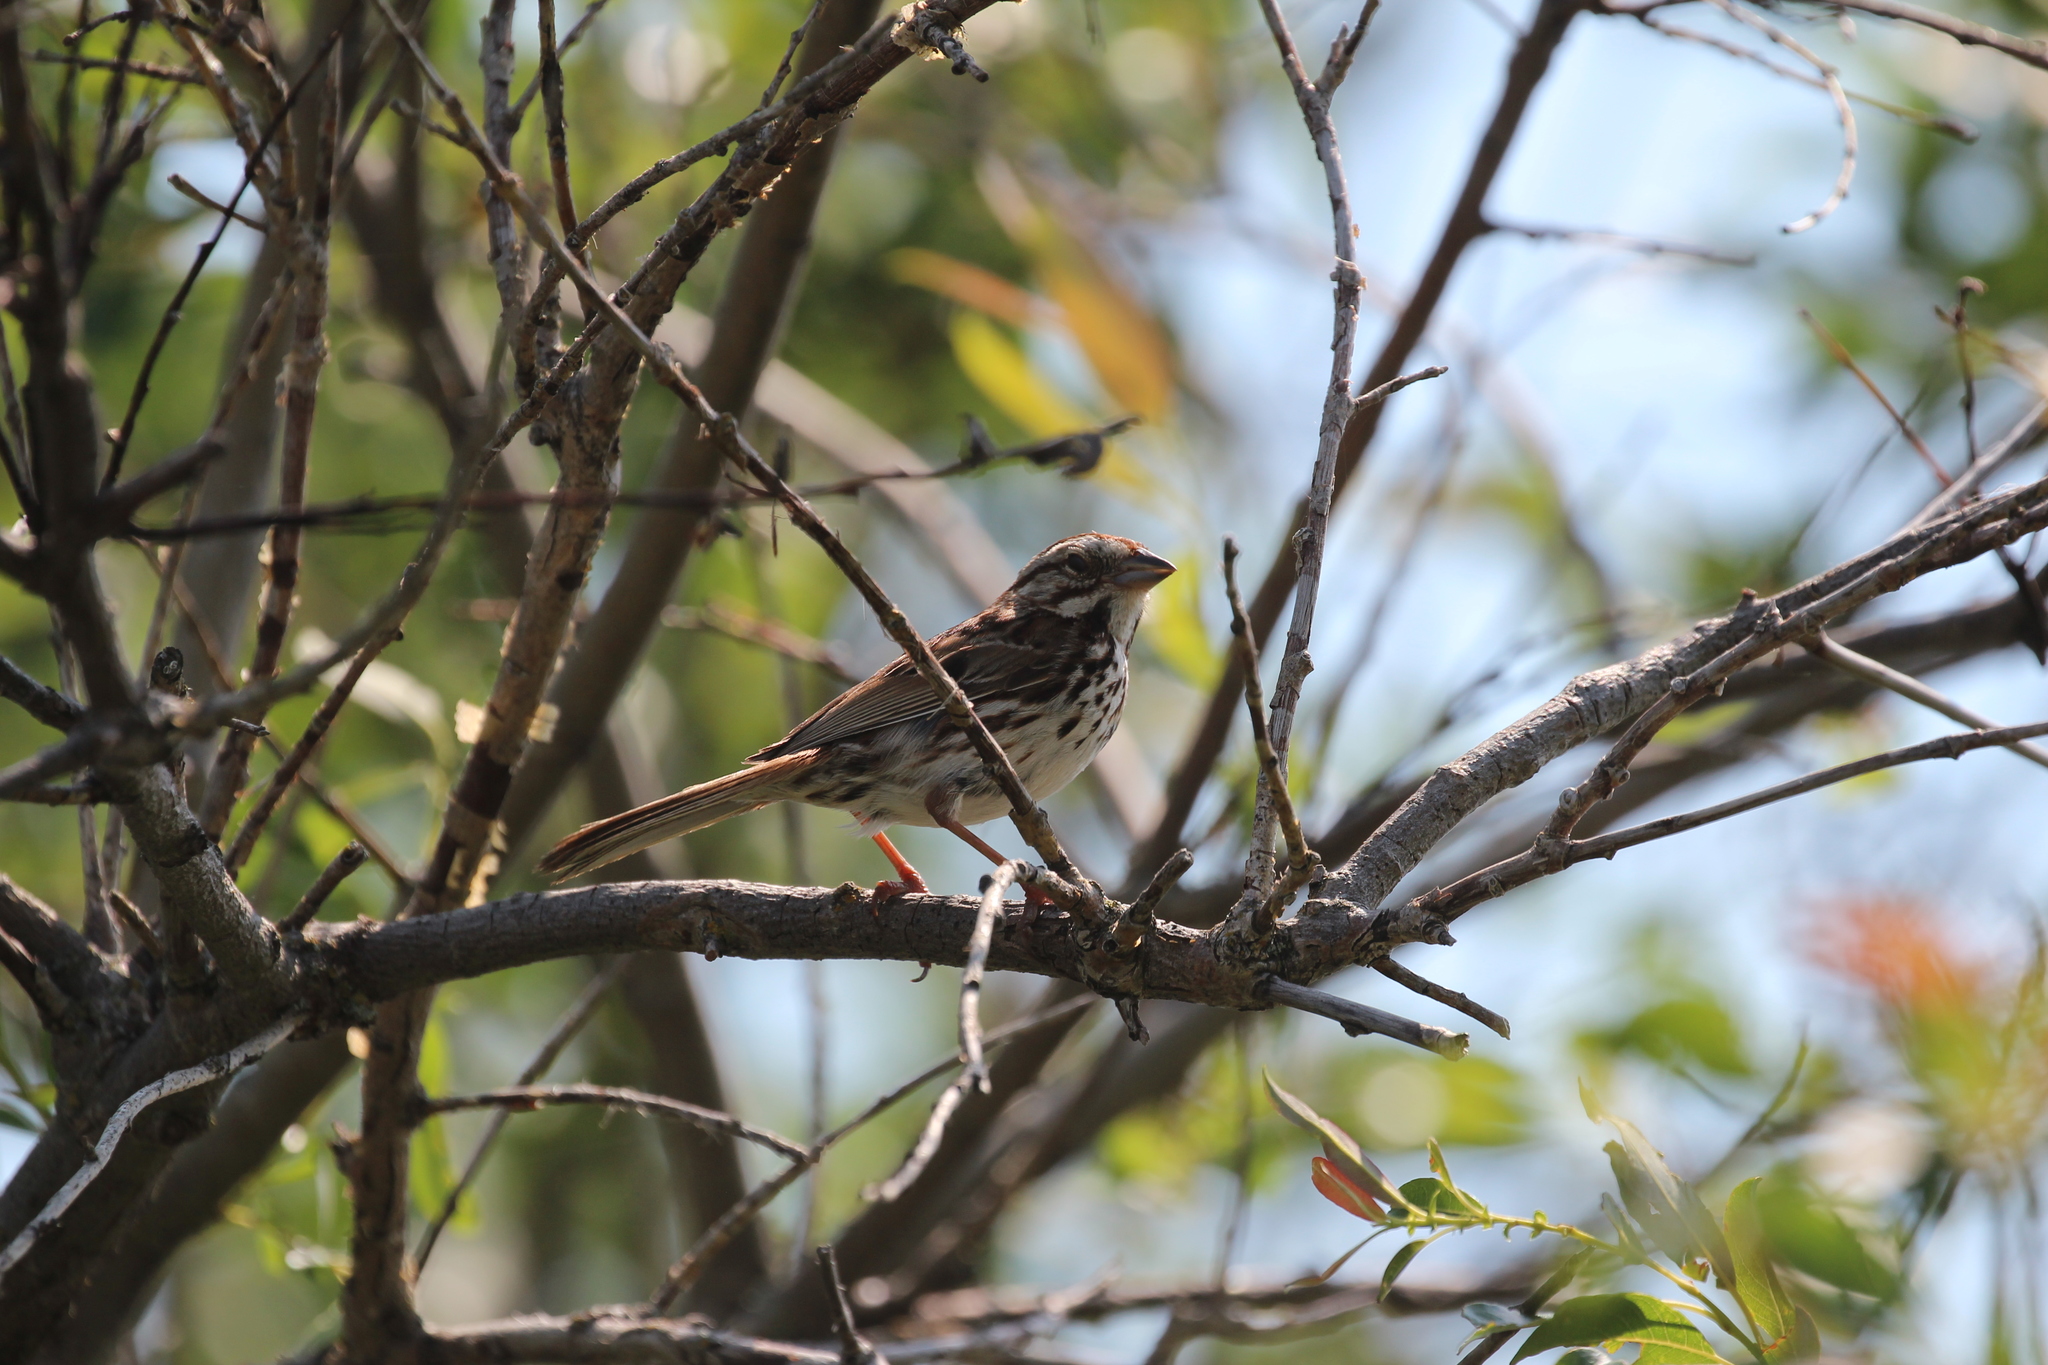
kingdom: Animalia
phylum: Chordata
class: Aves
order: Passeriformes
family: Passerellidae
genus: Melospiza
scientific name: Melospiza melodia
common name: Song sparrow
